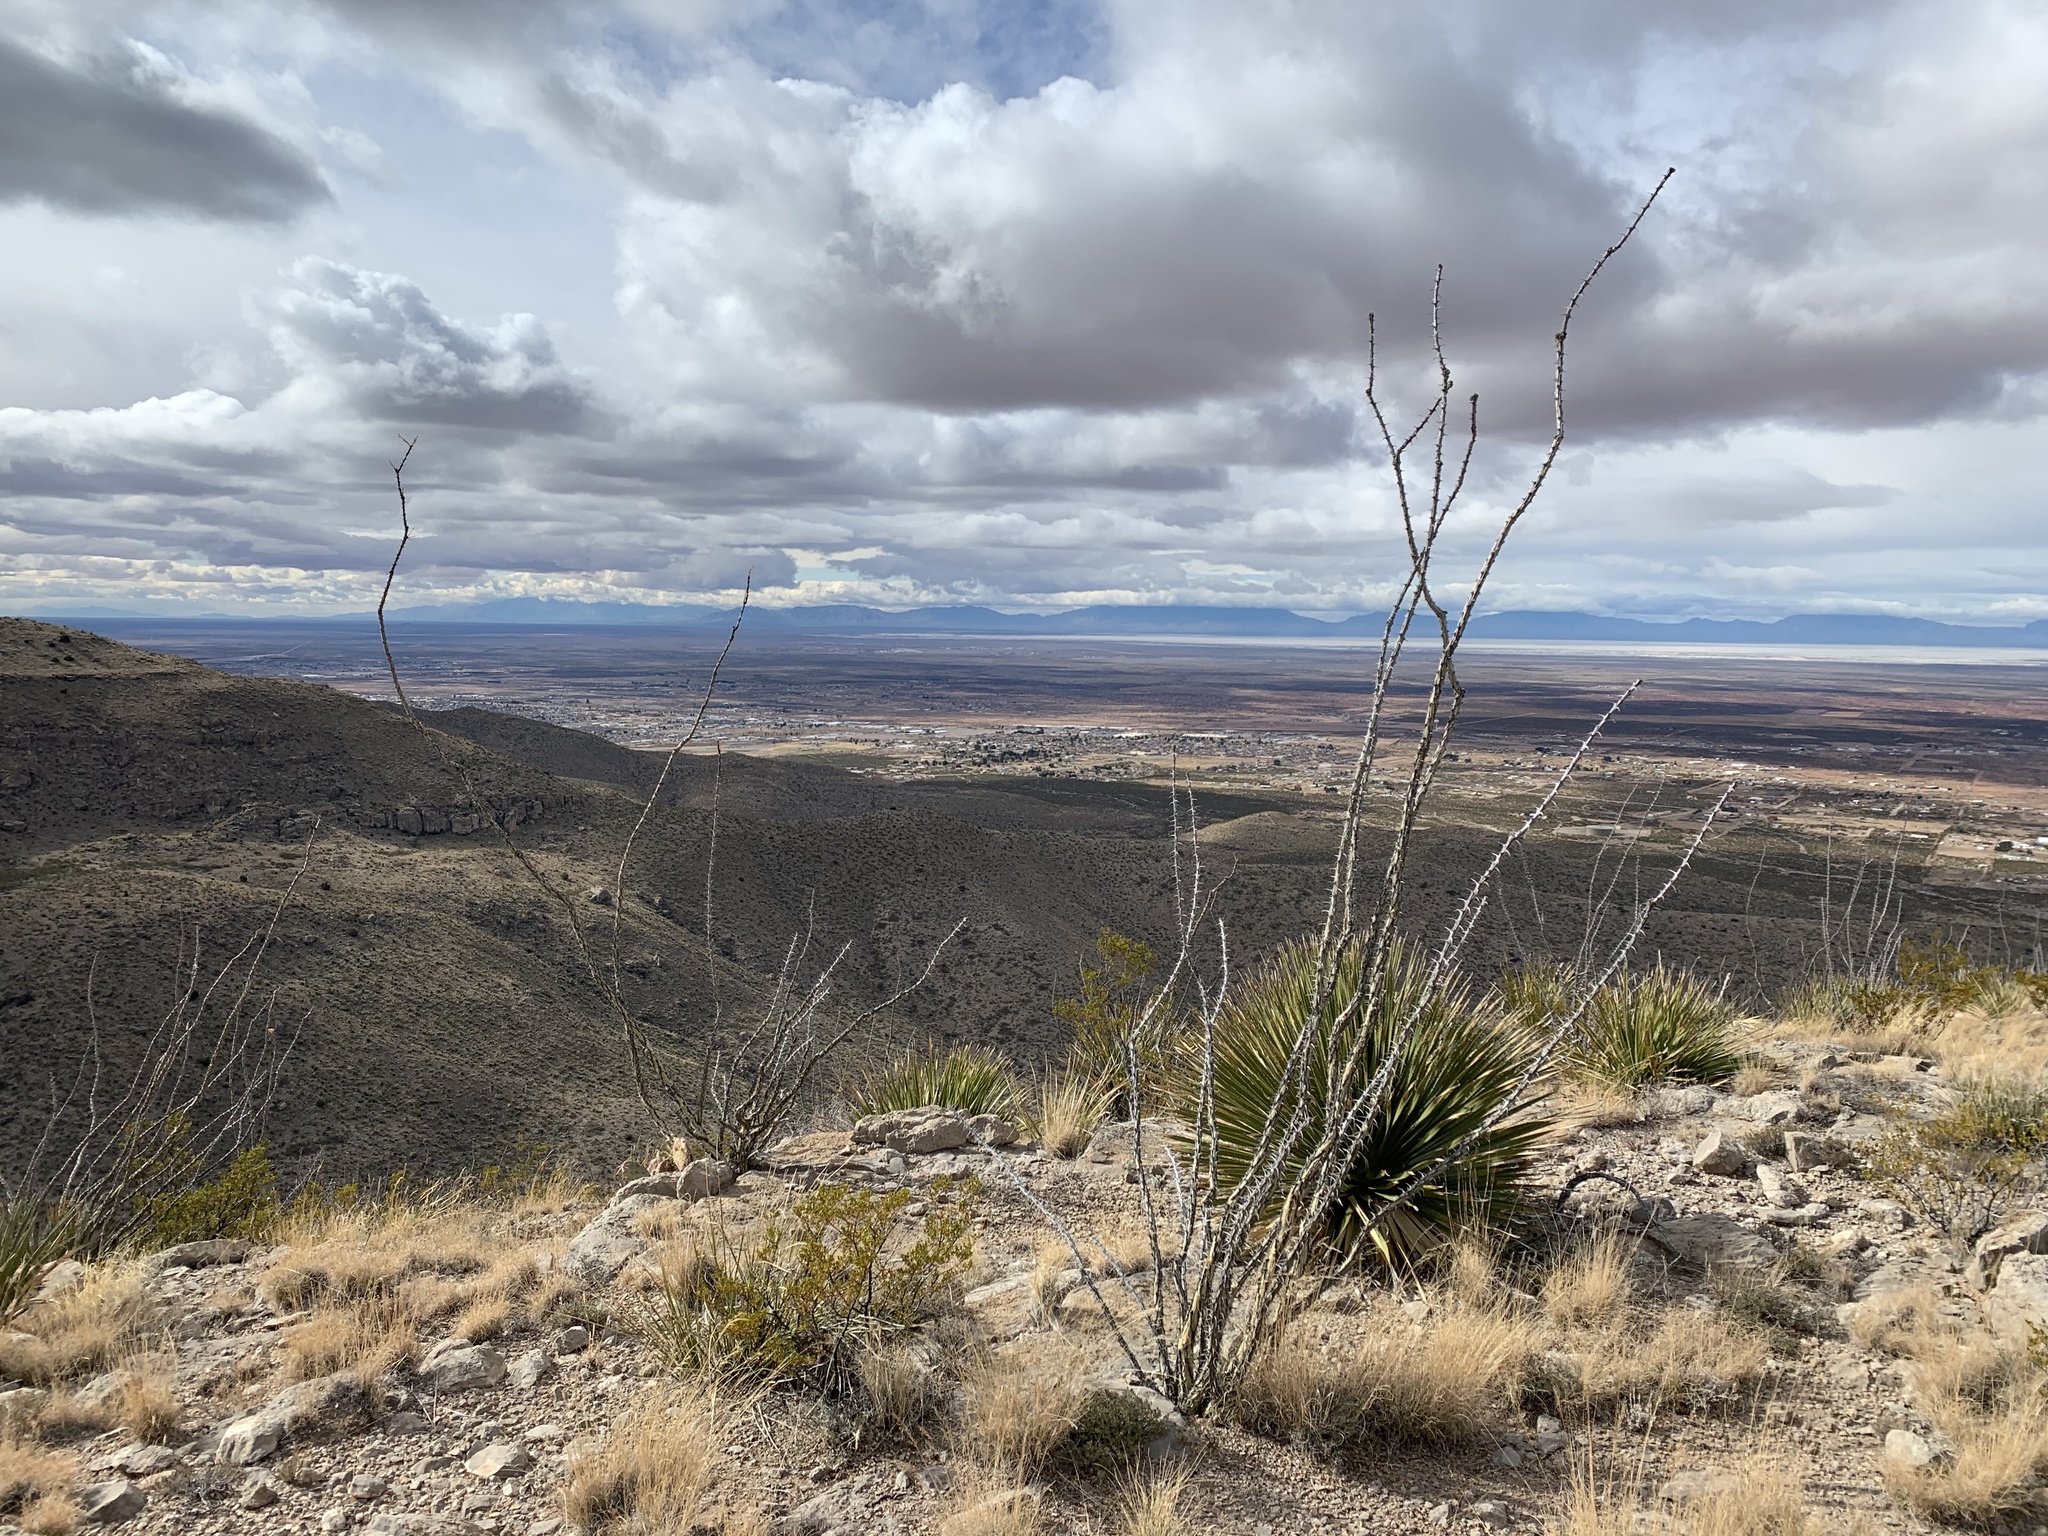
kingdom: Plantae
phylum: Tracheophyta
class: Magnoliopsida
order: Ericales
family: Fouquieriaceae
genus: Fouquieria
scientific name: Fouquieria splendens
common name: Vine-cactus
